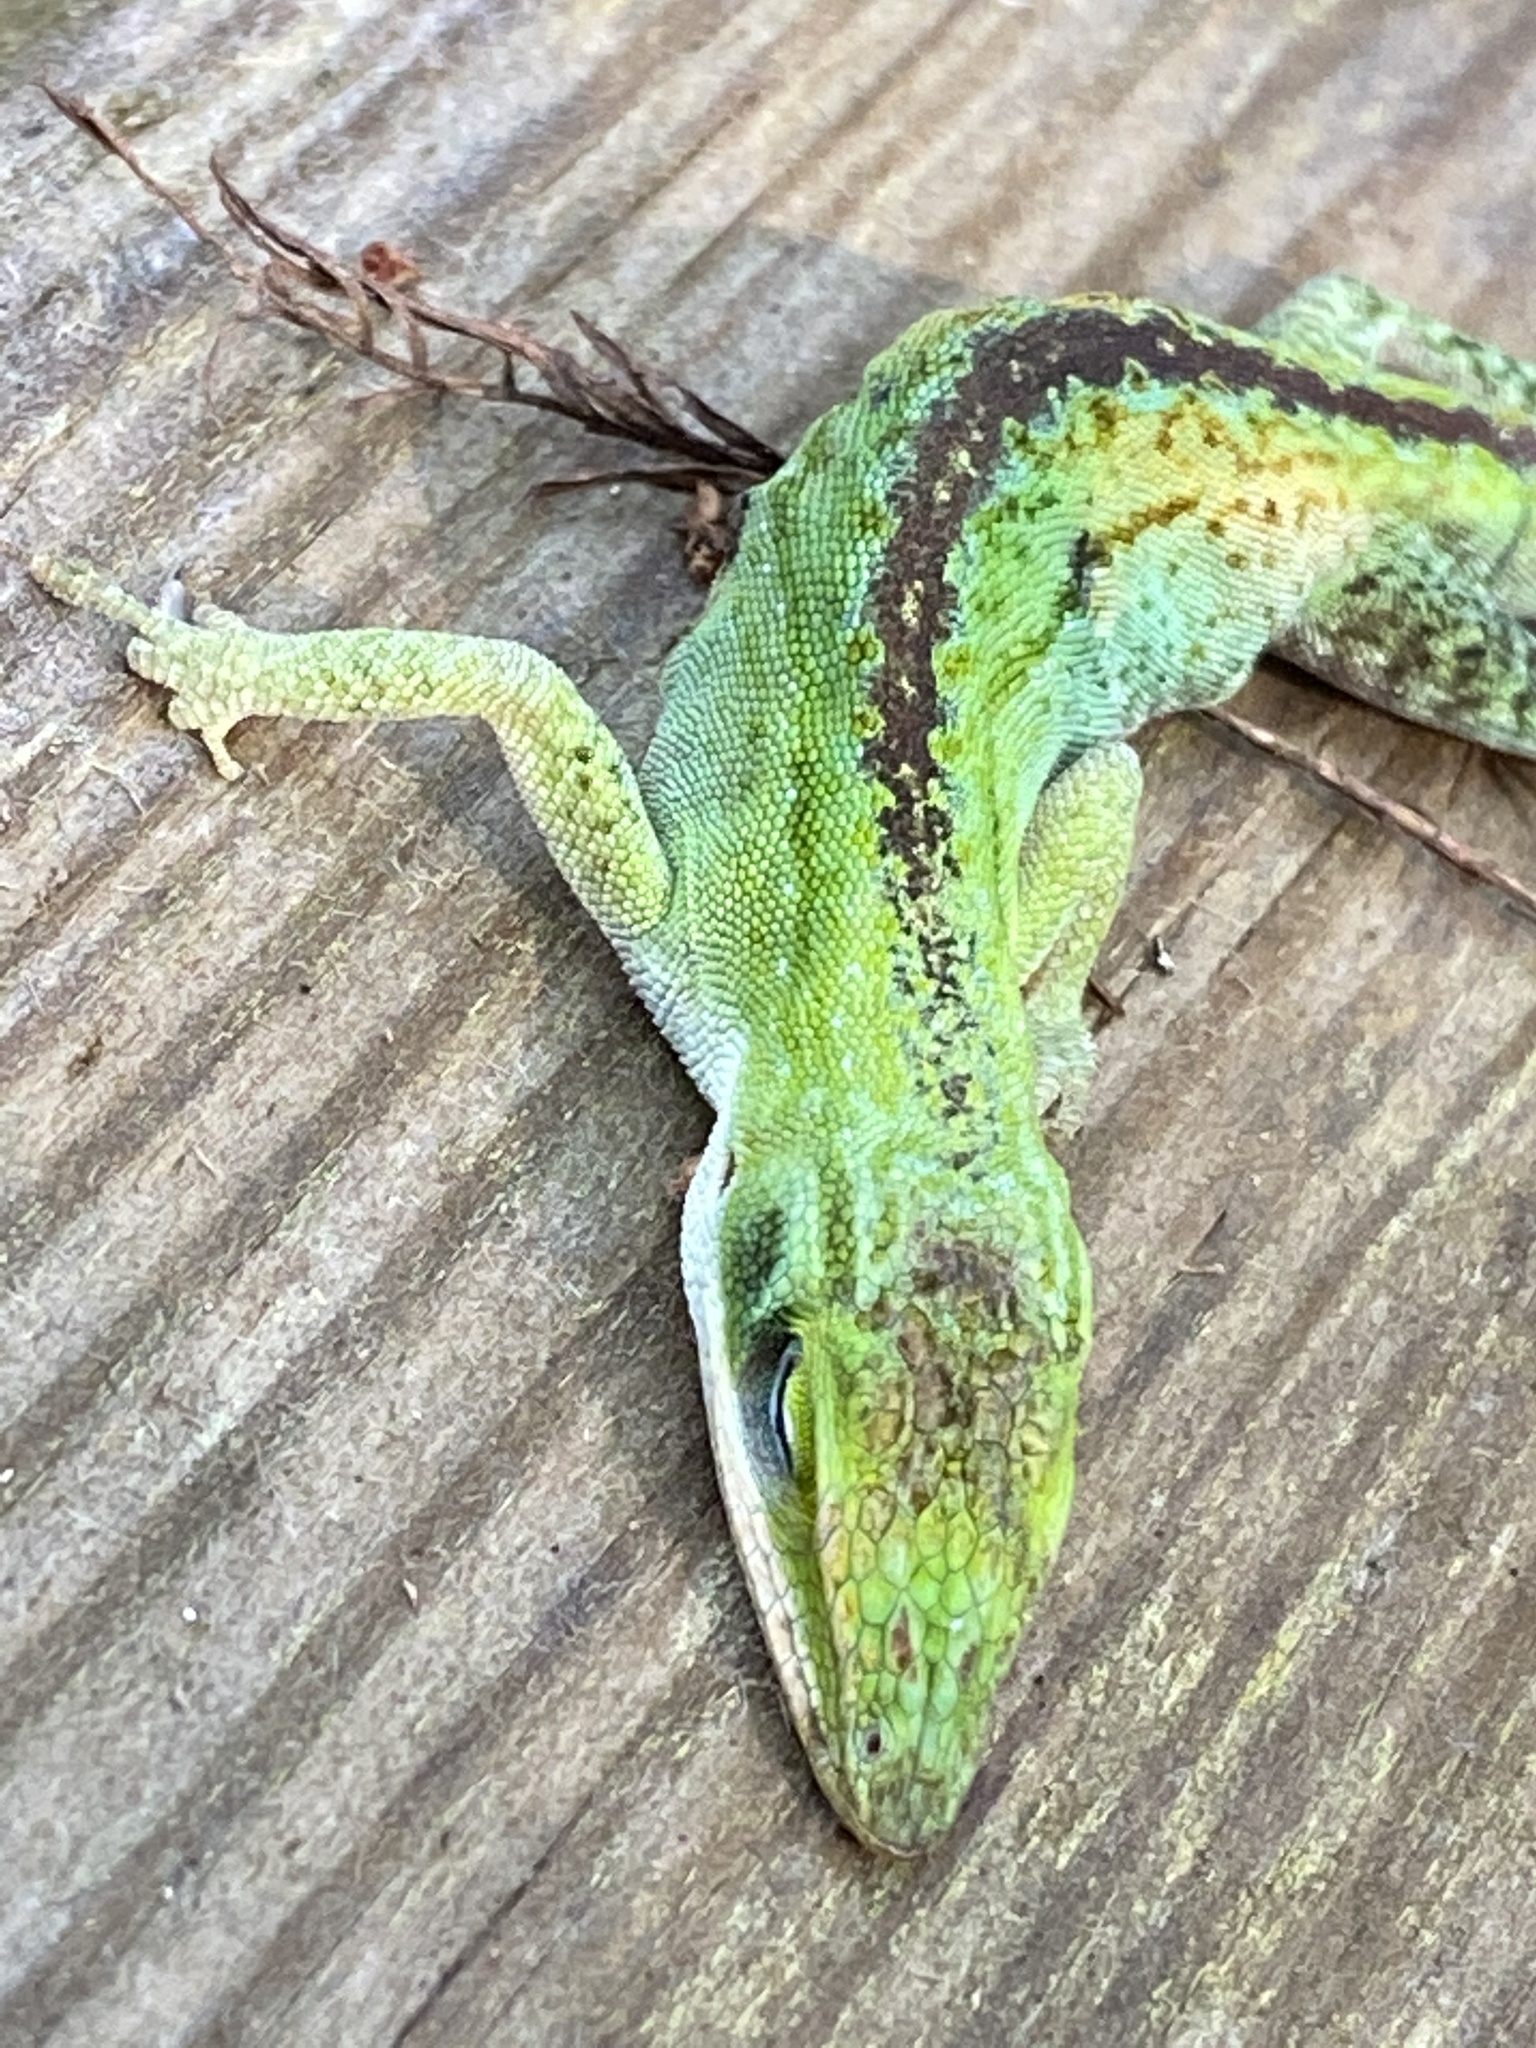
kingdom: Animalia
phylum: Chordata
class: Squamata
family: Dactyloidae
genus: Anolis
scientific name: Anolis carolinensis
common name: Green anole
